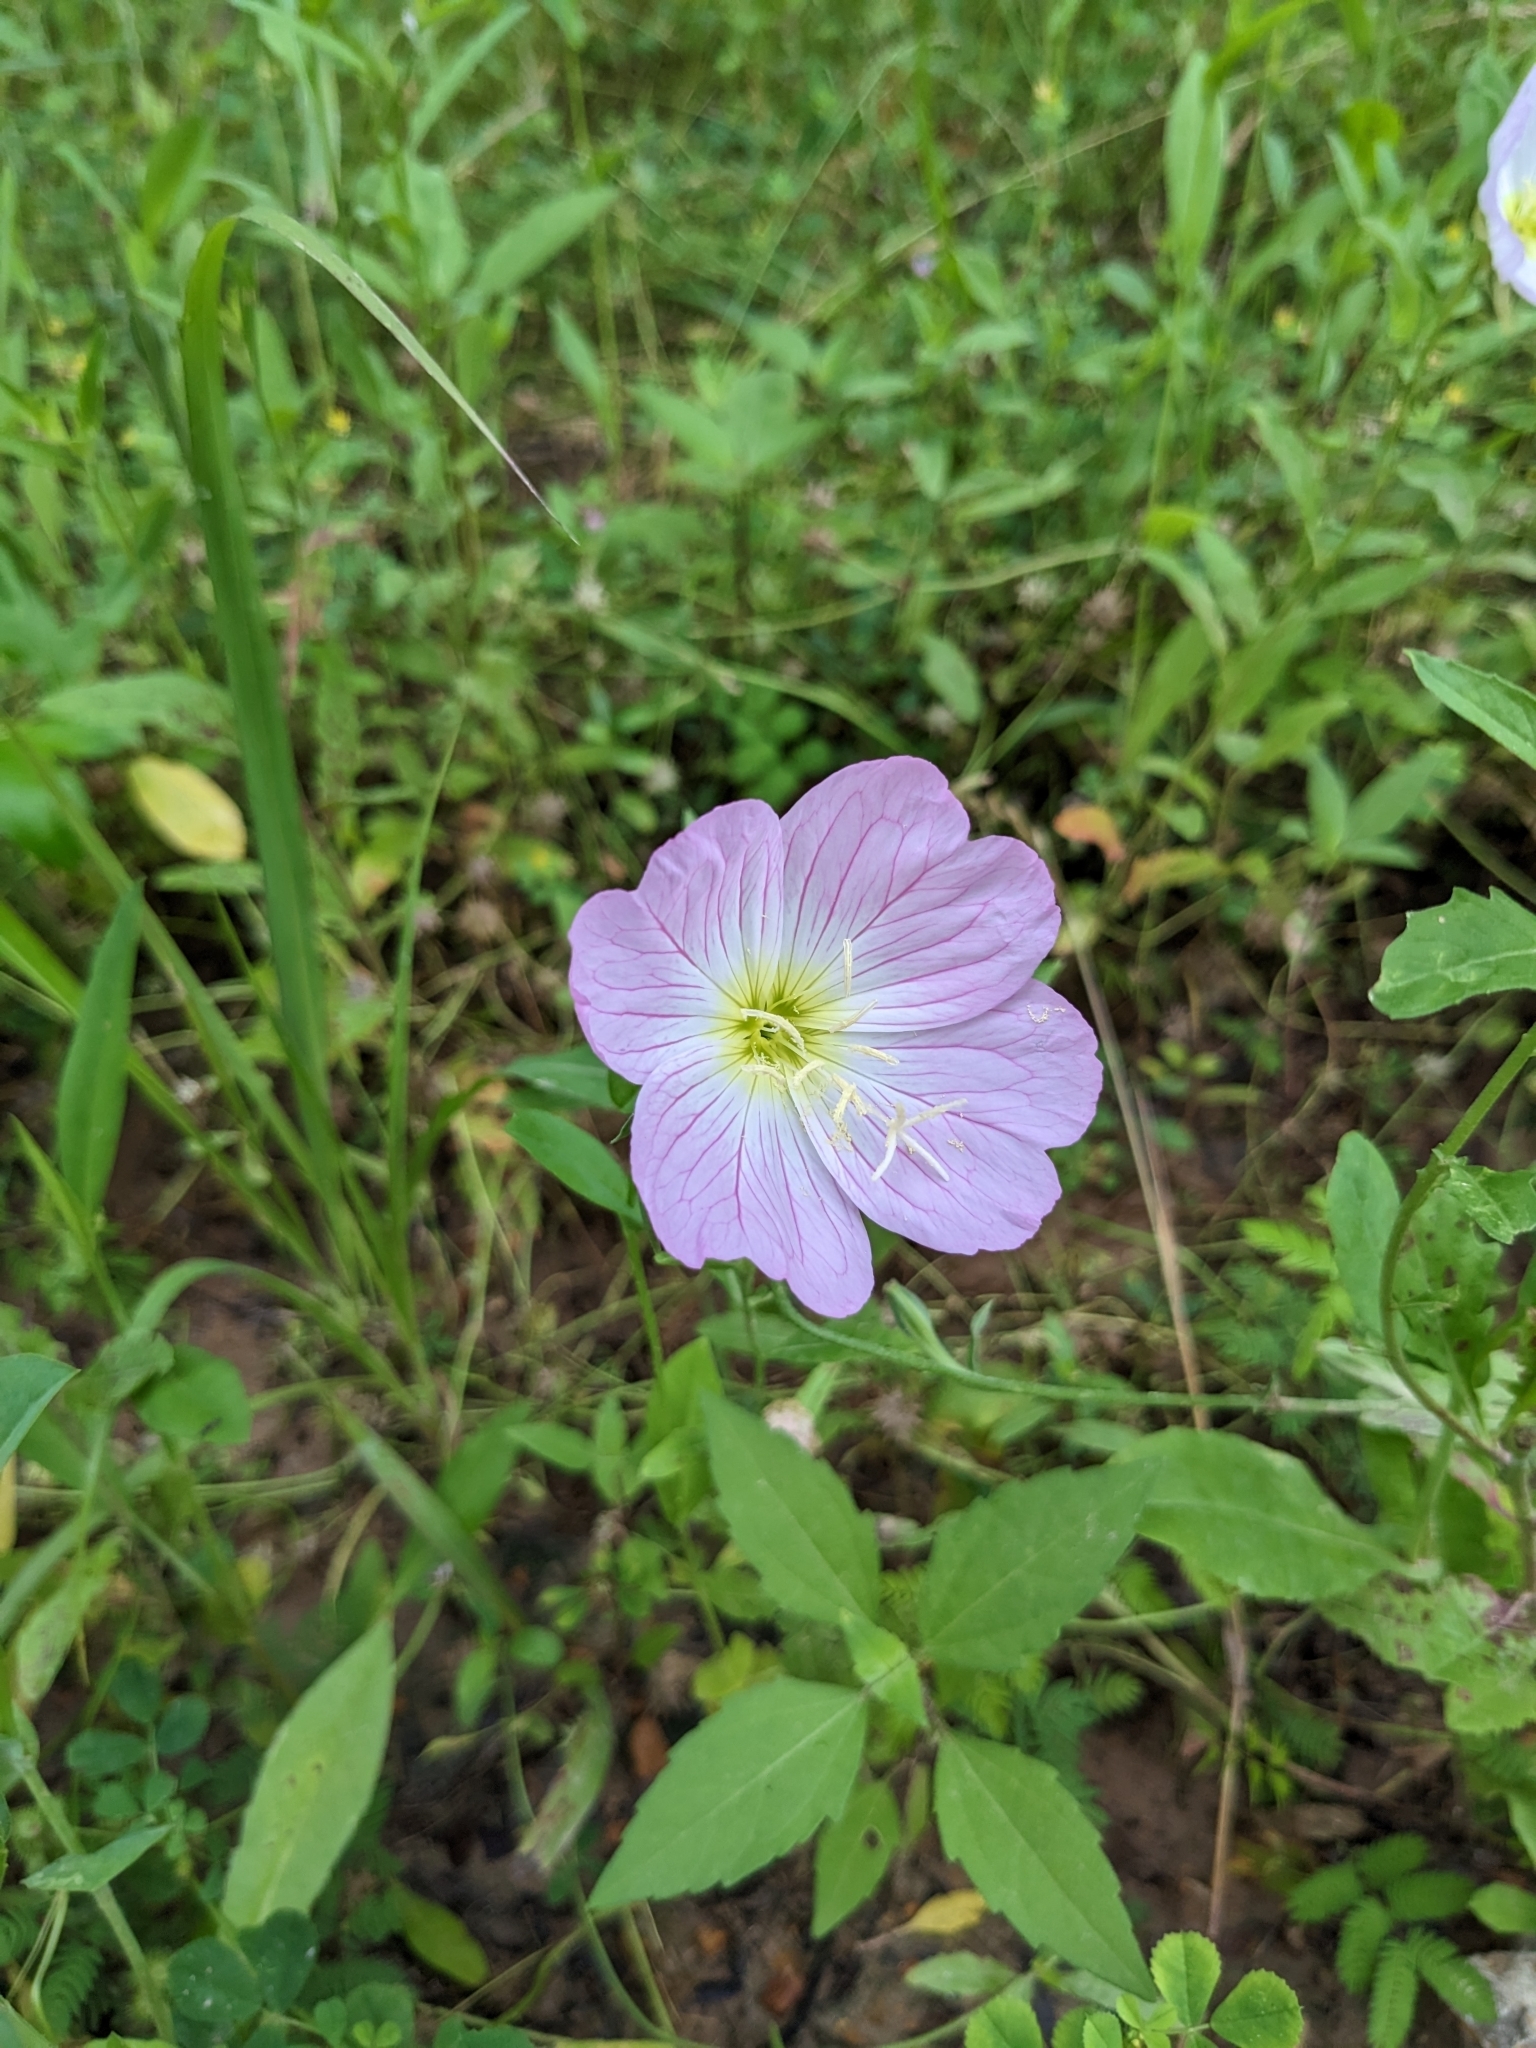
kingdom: Plantae
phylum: Tracheophyta
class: Magnoliopsida
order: Myrtales
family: Onagraceae
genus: Oenothera
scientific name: Oenothera speciosa
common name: White evening-primrose
